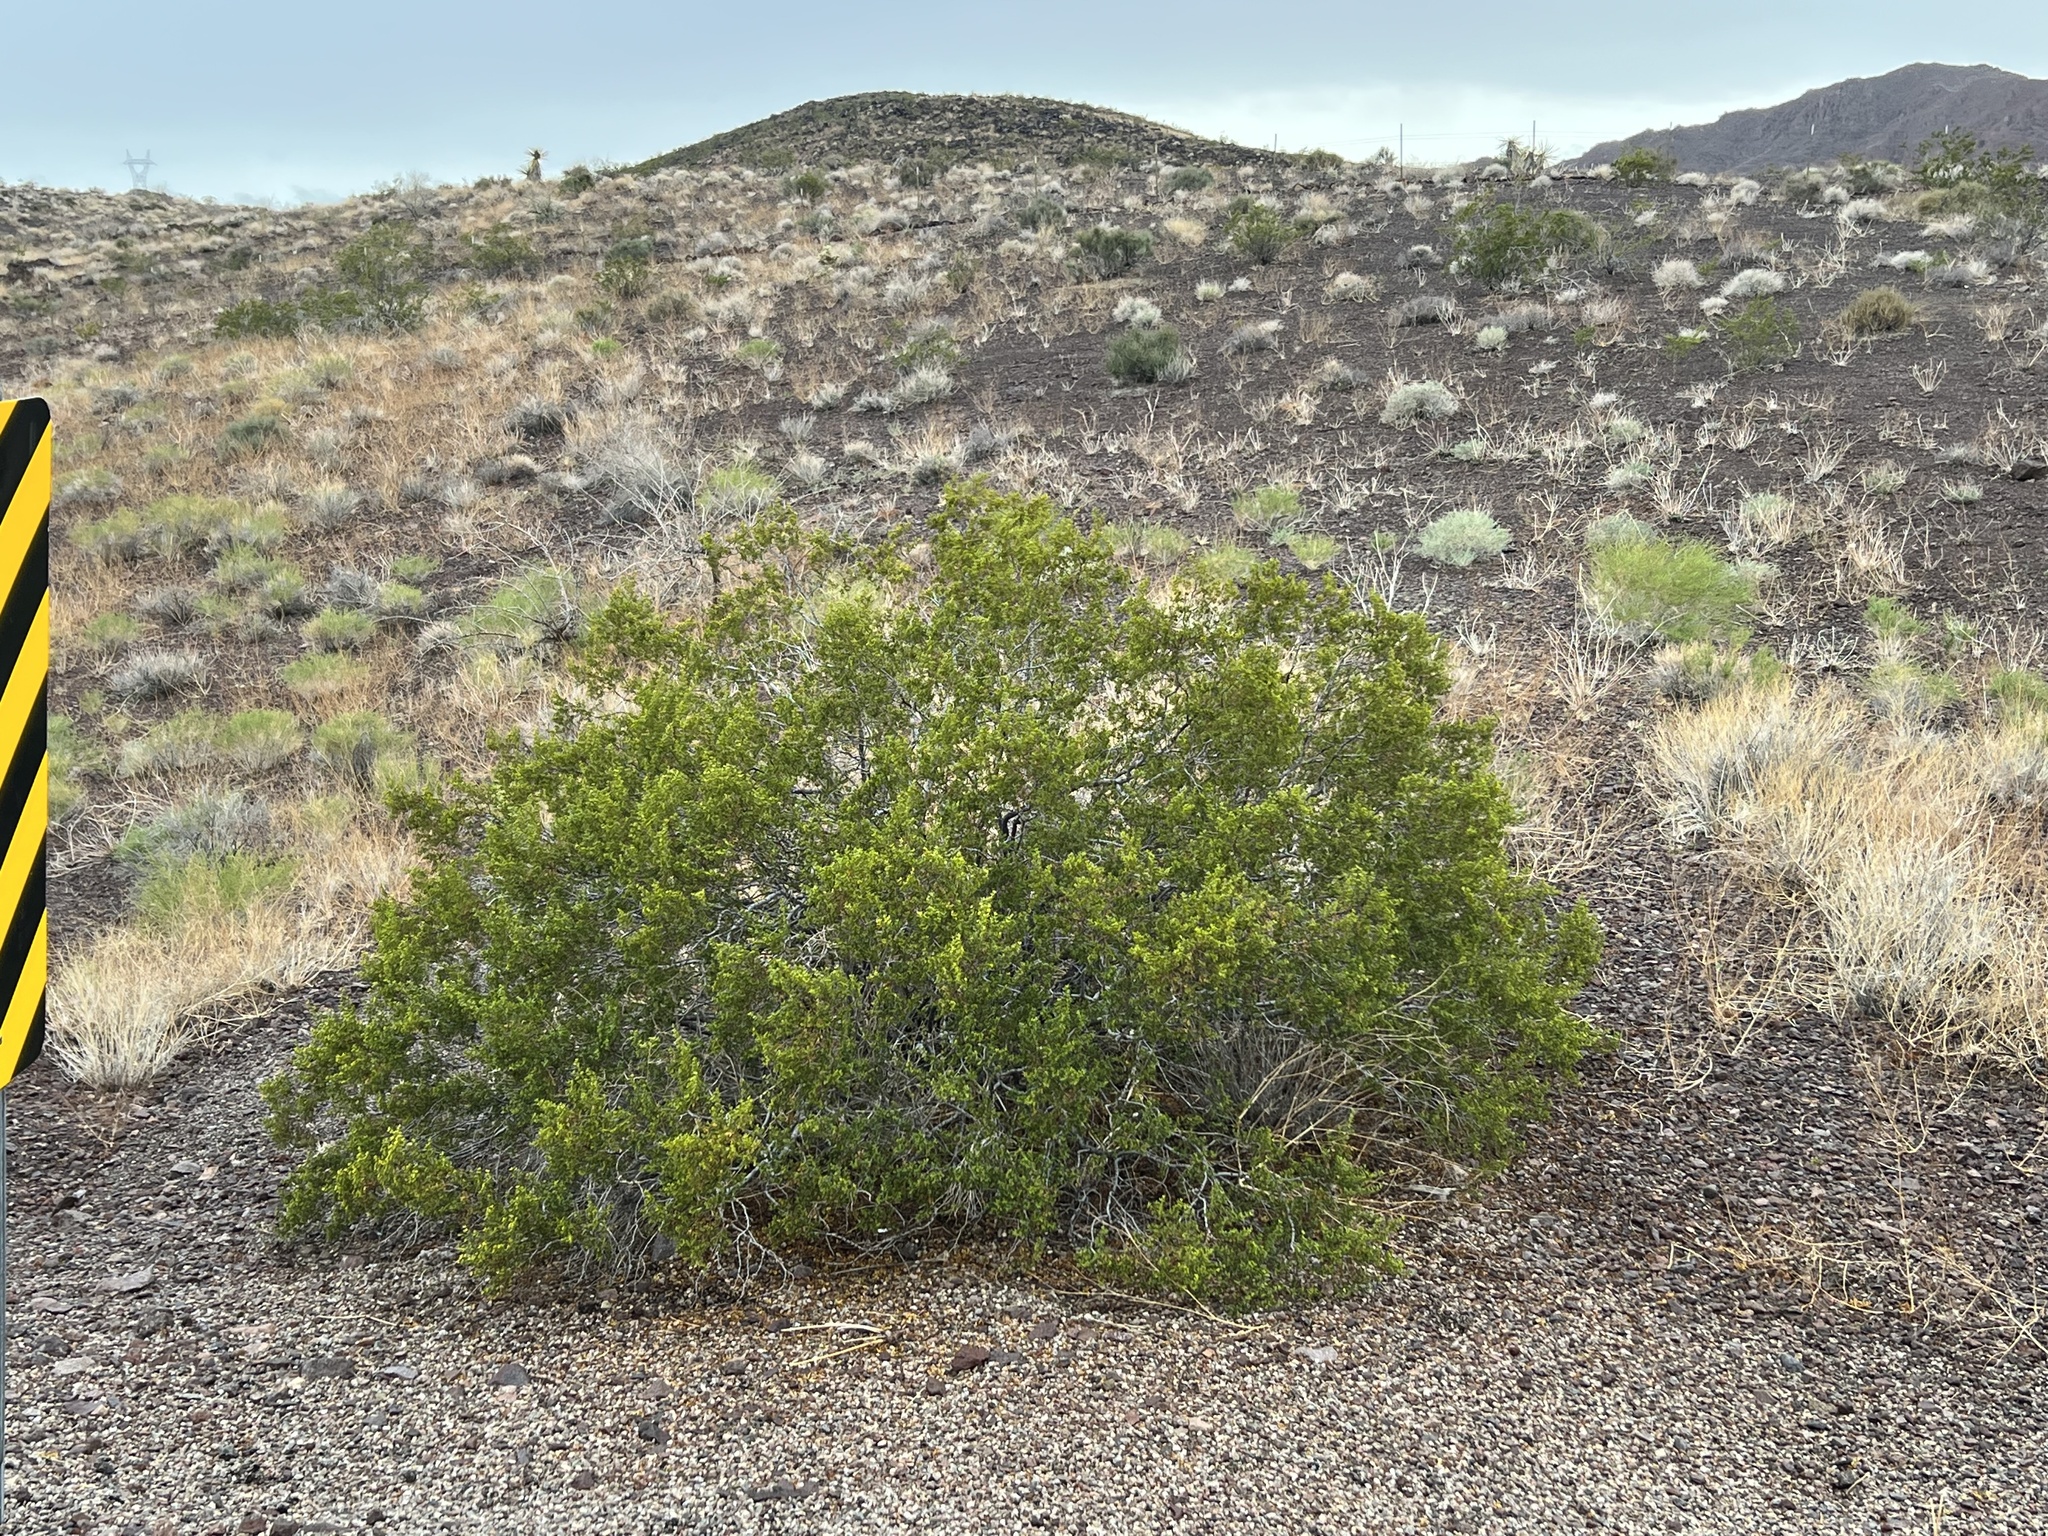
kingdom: Plantae
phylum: Tracheophyta
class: Magnoliopsida
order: Zygophyllales
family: Zygophyllaceae
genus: Larrea
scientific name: Larrea tridentata
